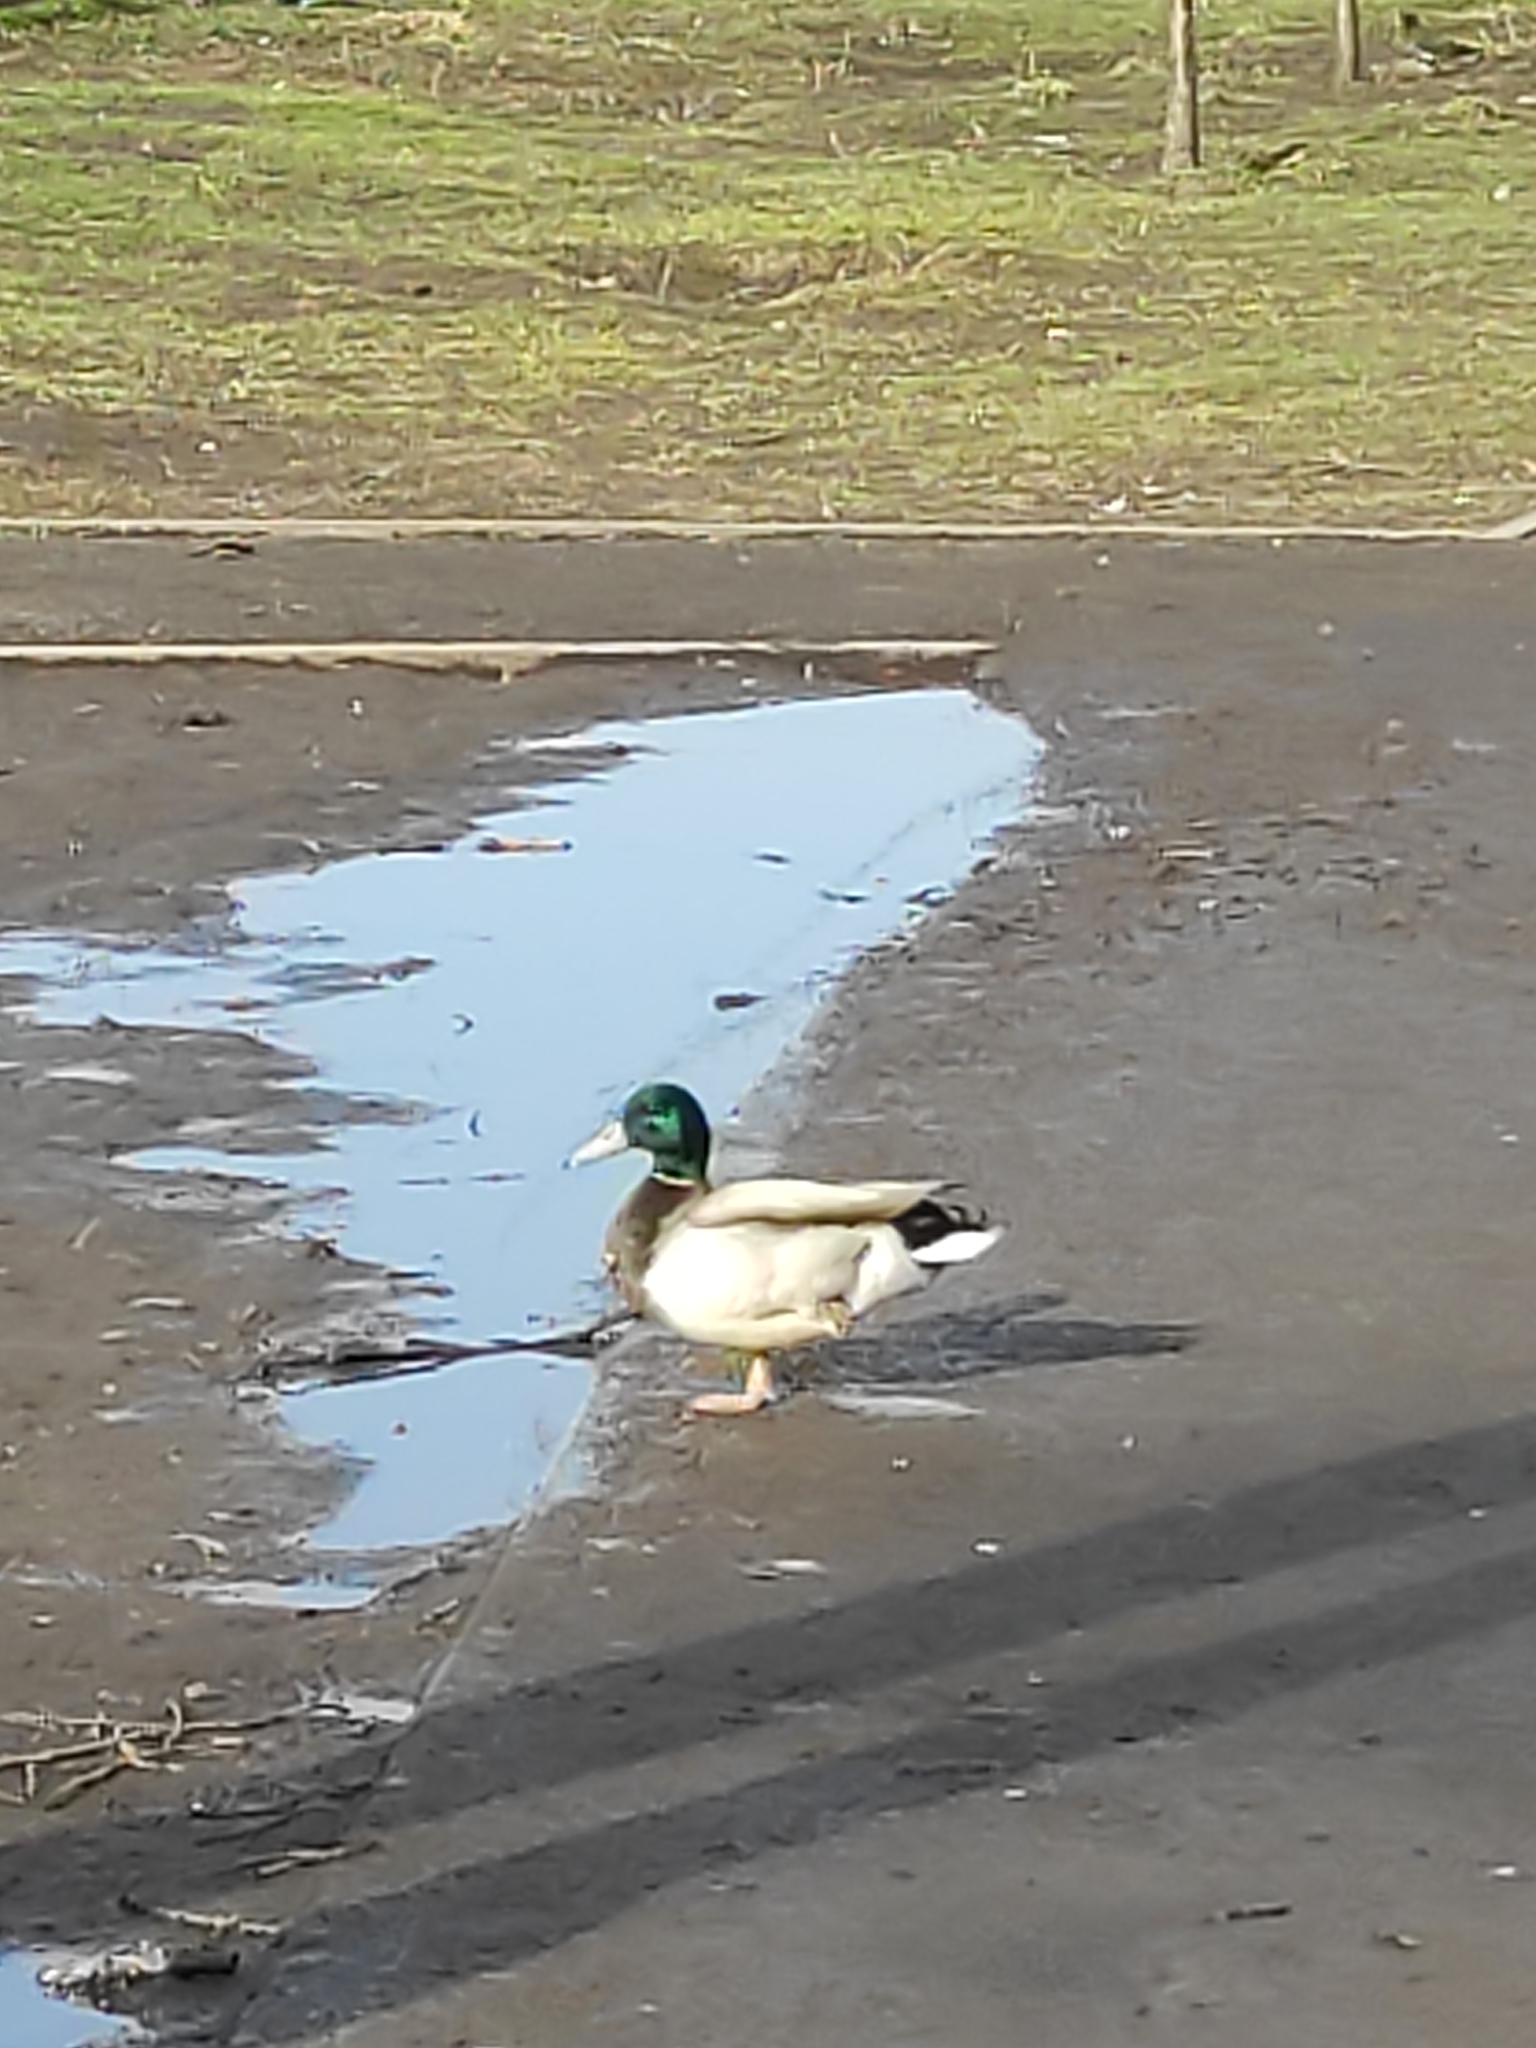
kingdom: Animalia
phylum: Chordata
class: Aves
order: Anseriformes
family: Anatidae
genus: Anas
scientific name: Anas platyrhynchos
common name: Mallard
